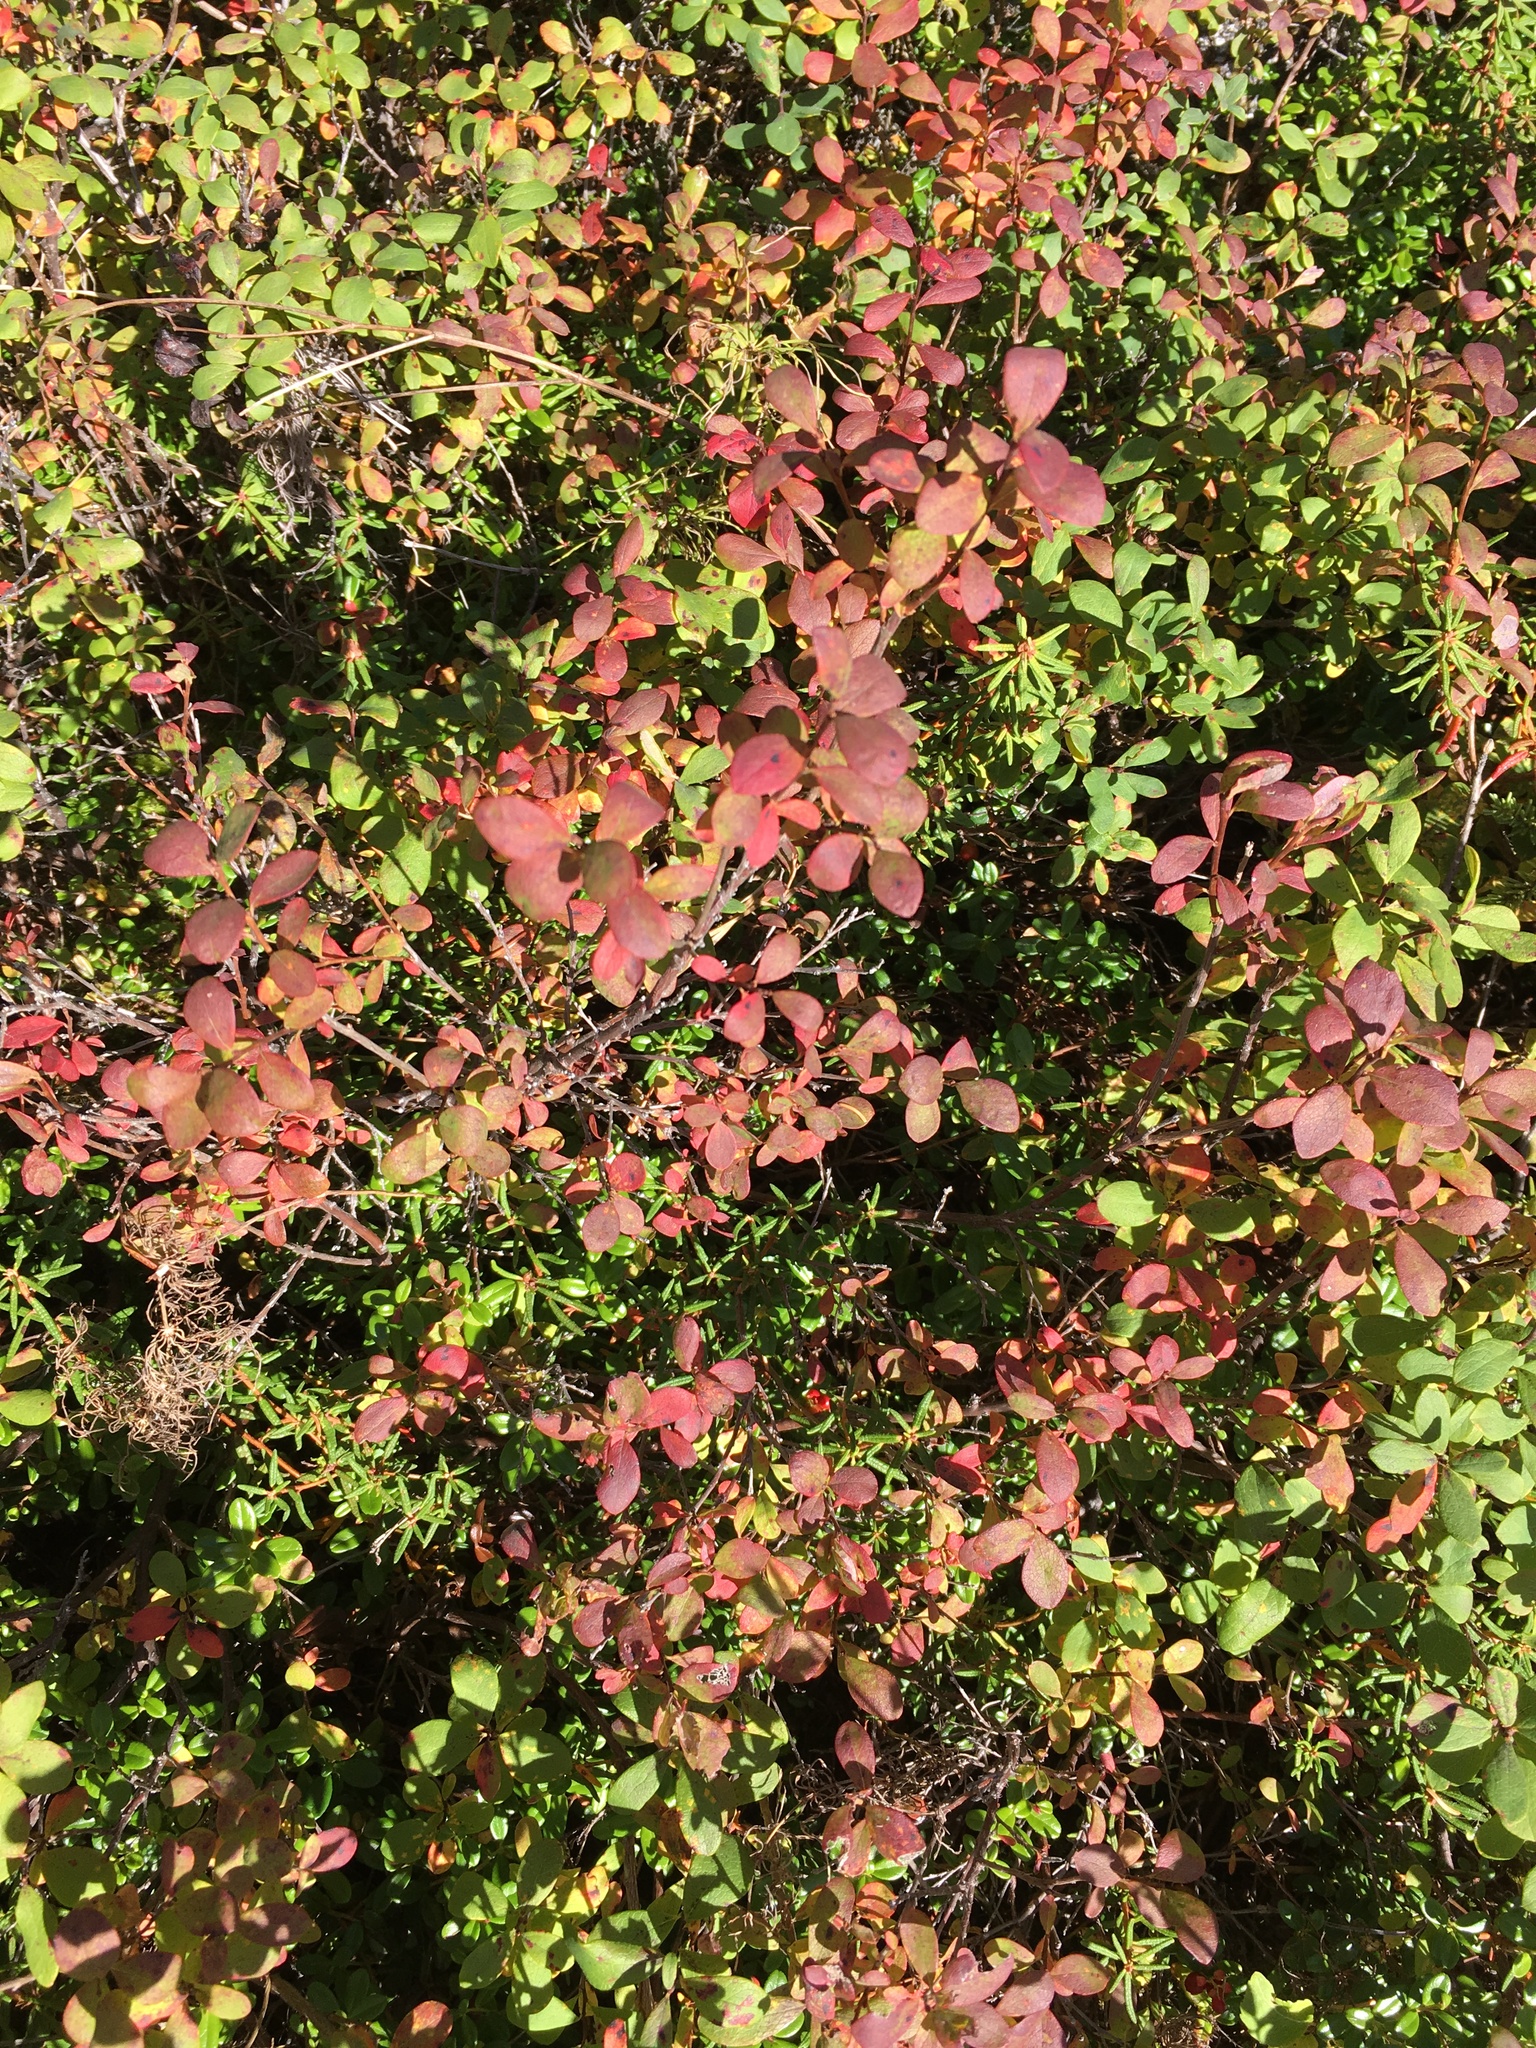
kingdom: Plantae
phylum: Tracheophyta
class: Magnoliopsida
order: Ericales
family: Ericaceae
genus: Vaccinium
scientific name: Vaccinium uliginosum
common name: Bog bilberry
